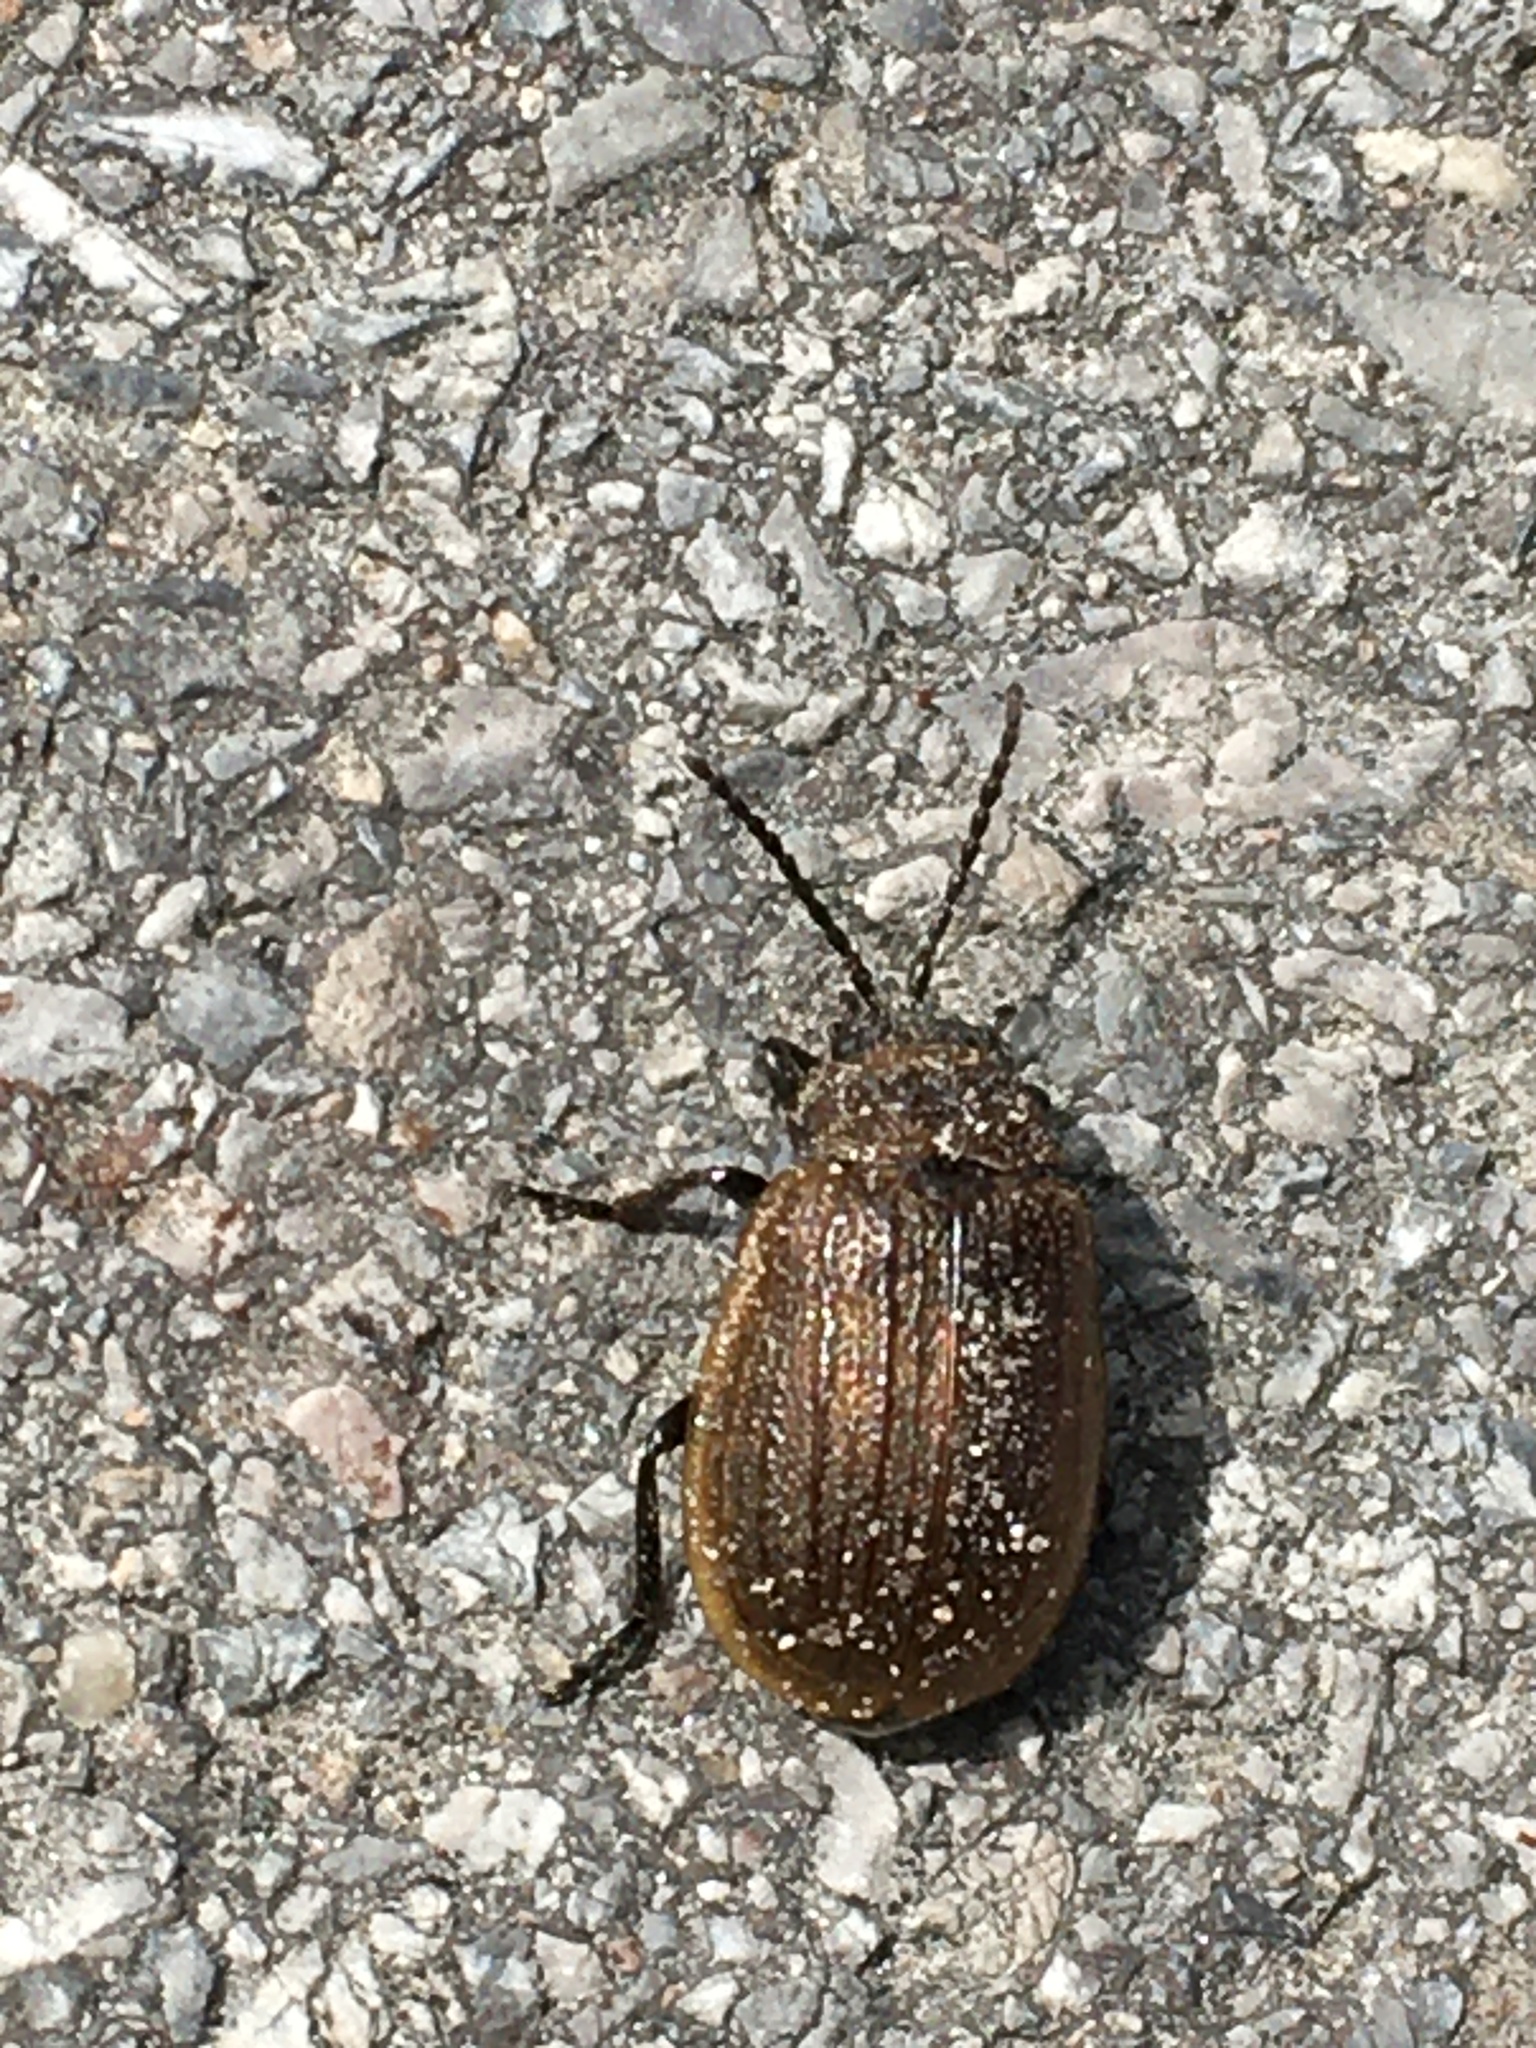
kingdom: Animalia
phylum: Arthropoda
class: Insecta
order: Coleoptera
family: Chrysomelidae
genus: Galeruca
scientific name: Galeruca pomonae
